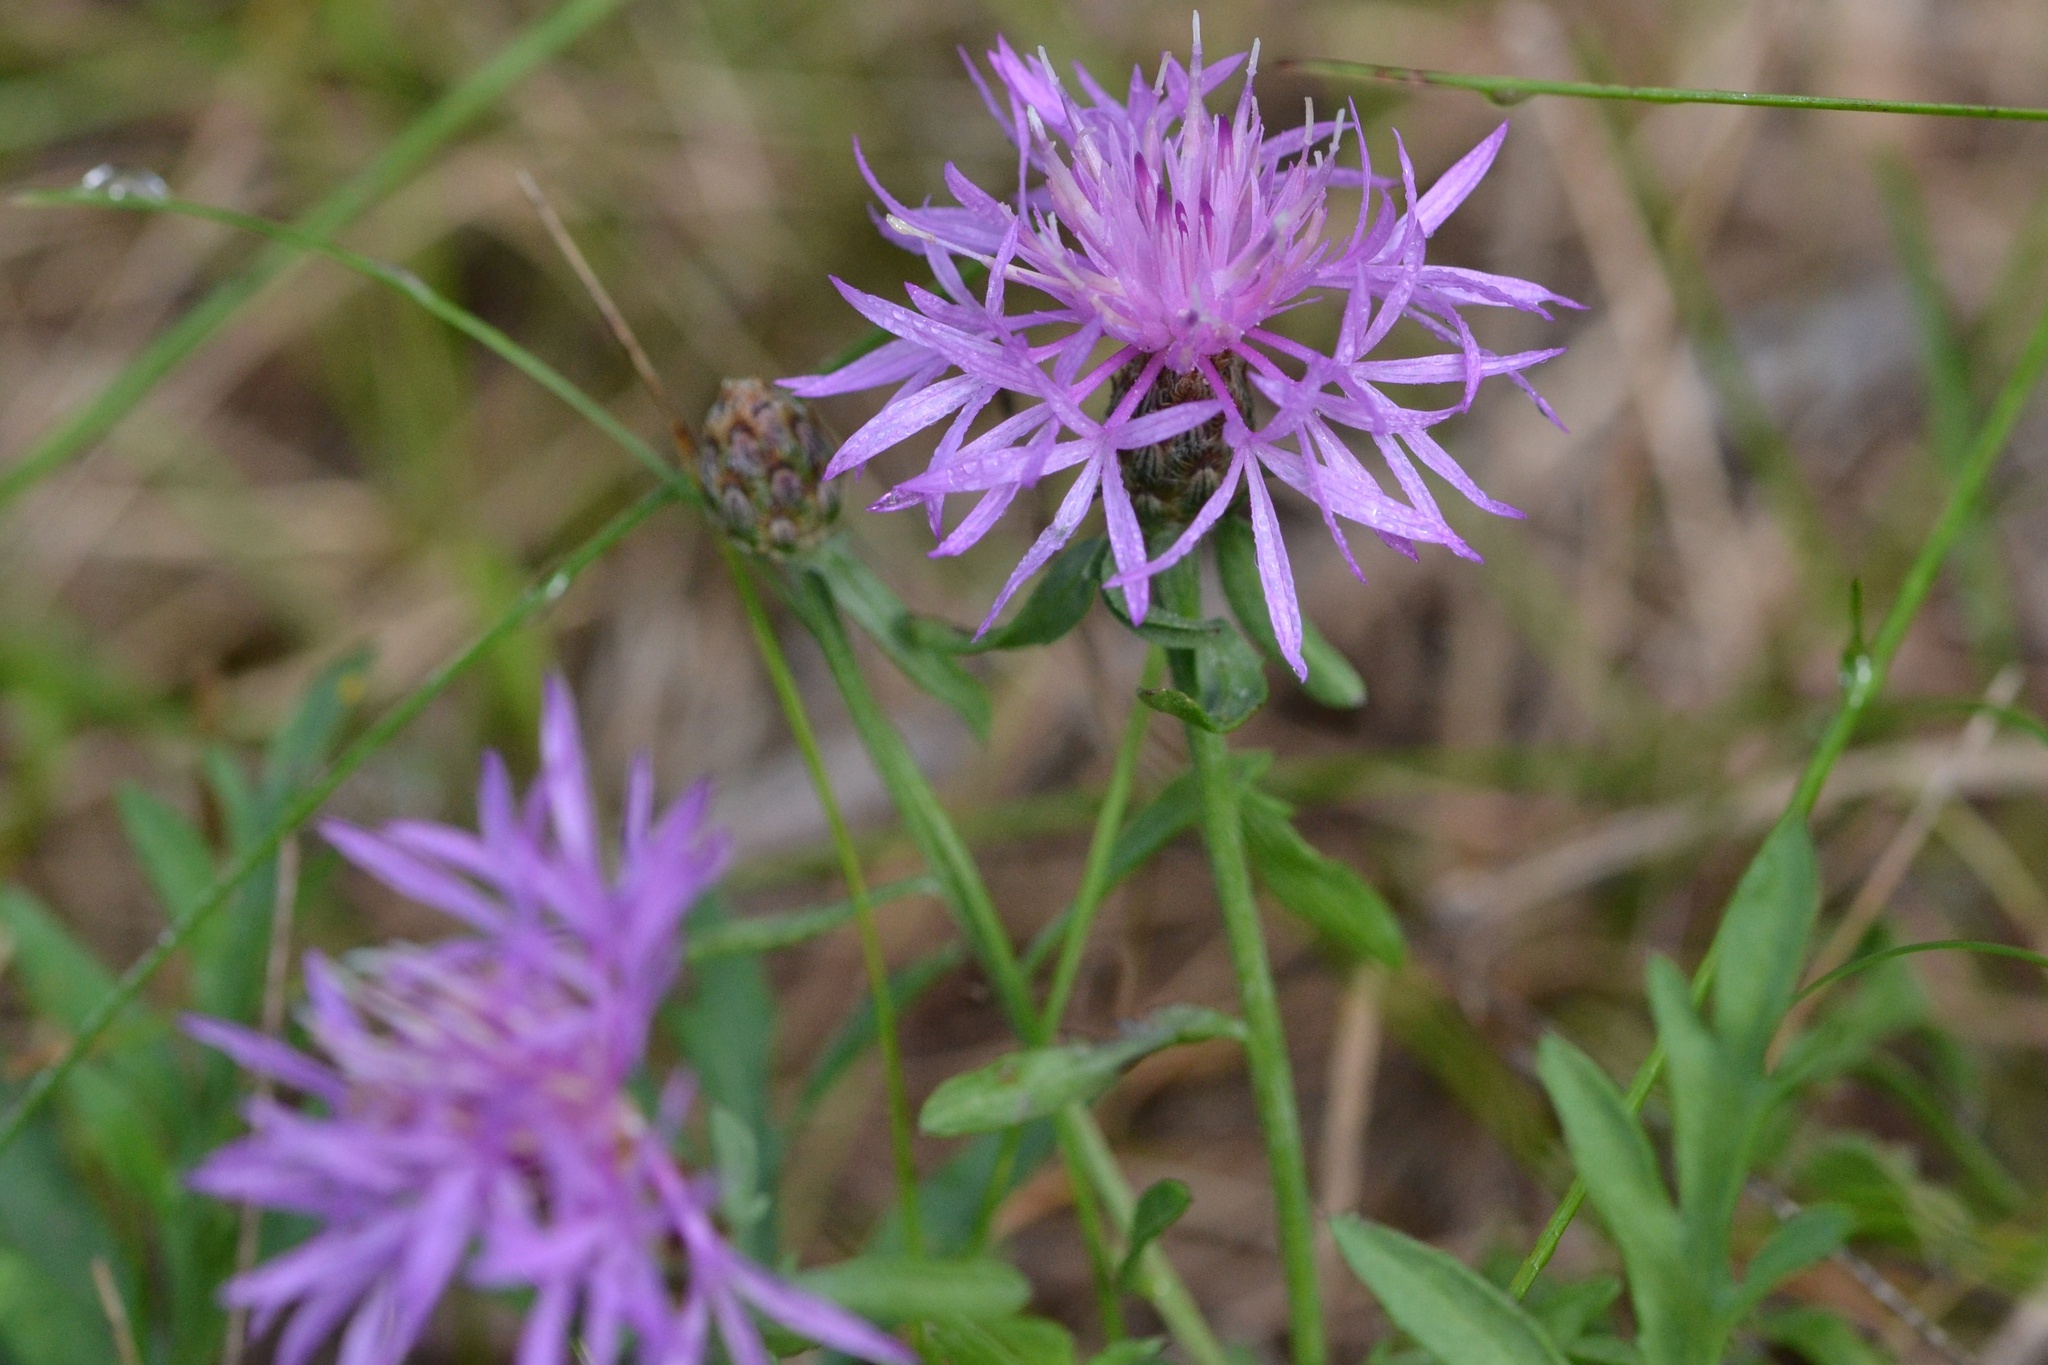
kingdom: Plantae
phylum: Tracheophyta
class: Magnoliopsida
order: Asterales
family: Asteraceae
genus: Centaurea
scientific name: Centaurea stoebe
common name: Spotted knapweed
